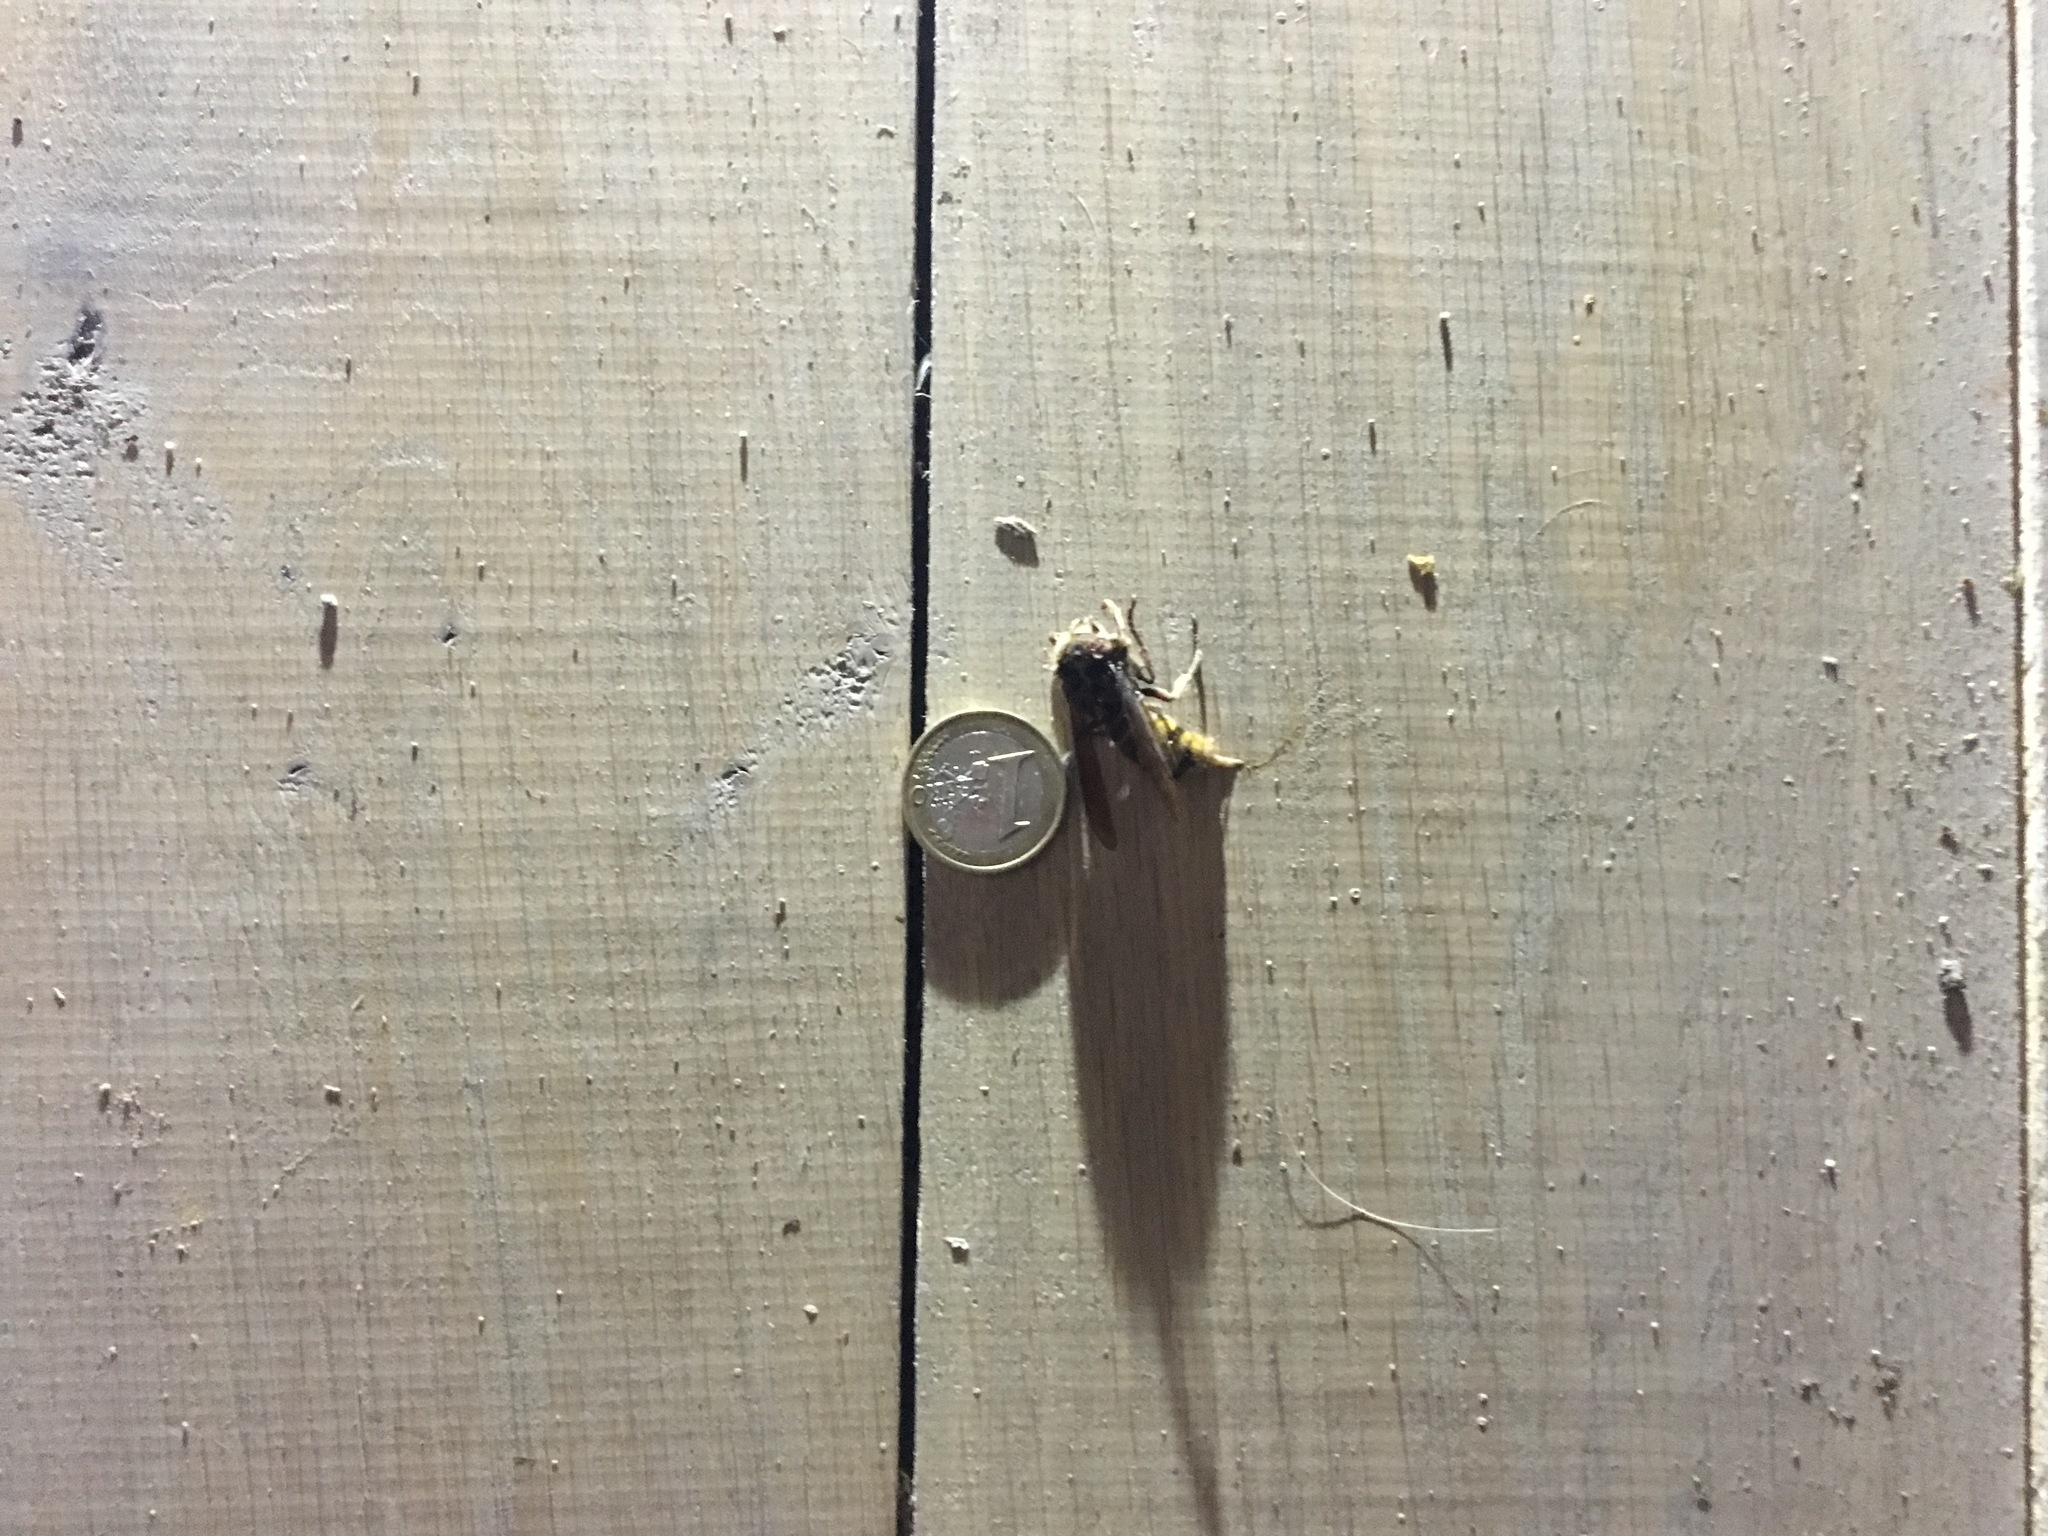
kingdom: Animalia
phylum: Arthropoda
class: Insecta
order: Hymenoptera
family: Vespidae
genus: Vespa
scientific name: Vespa crabro
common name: Hornet
